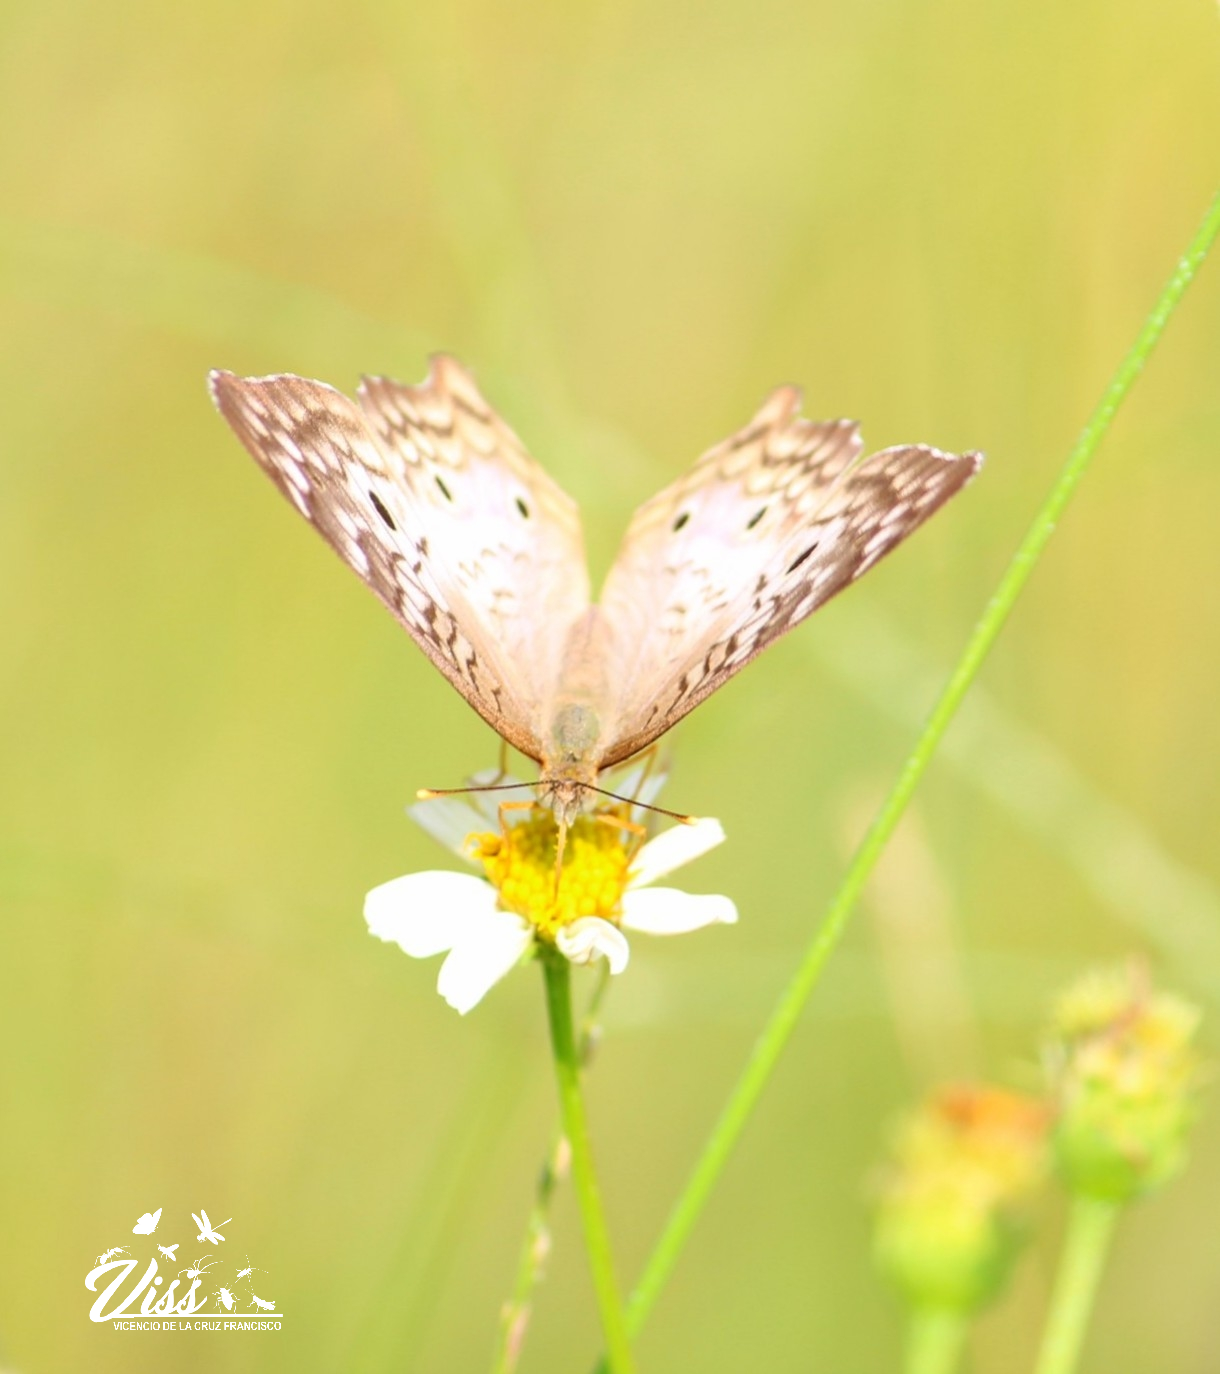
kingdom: Animalia
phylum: Arthropoda
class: Insecta
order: Lepidoptera
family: Nymphalidae
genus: Anartia
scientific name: Anartia jatrophae
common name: White peacock
